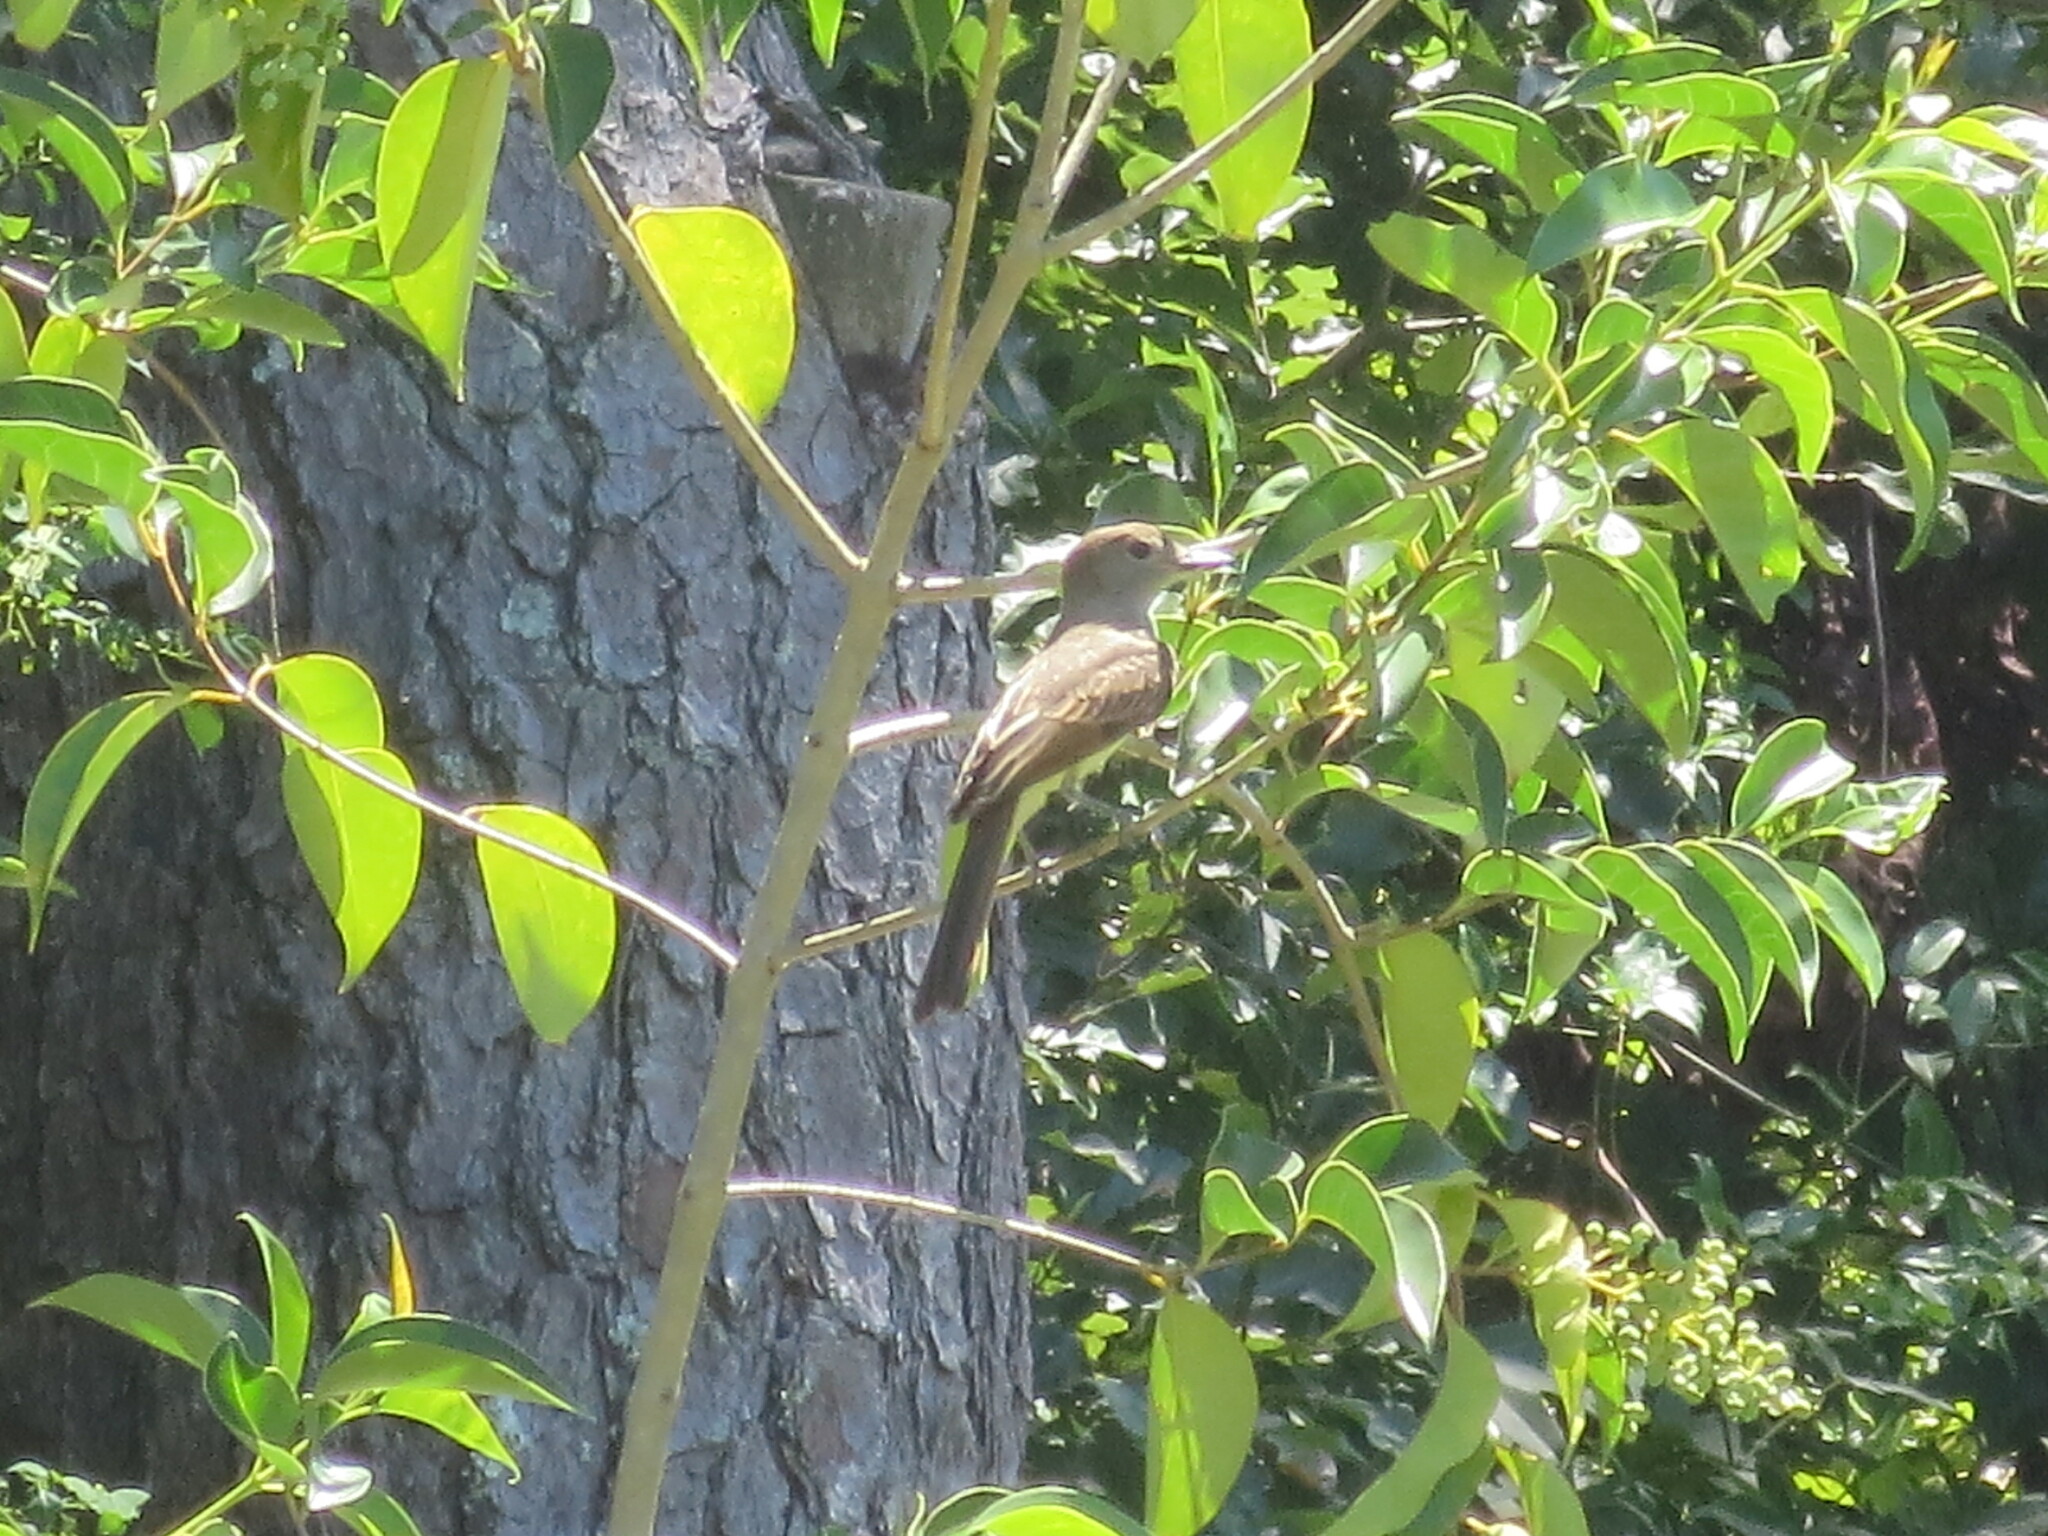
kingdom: Animalia
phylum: Chordata
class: Aves
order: Passeriformes
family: Tyrannidae
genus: Myiarchus
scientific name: Myiarchus crinitus
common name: Great crested flycatcher
